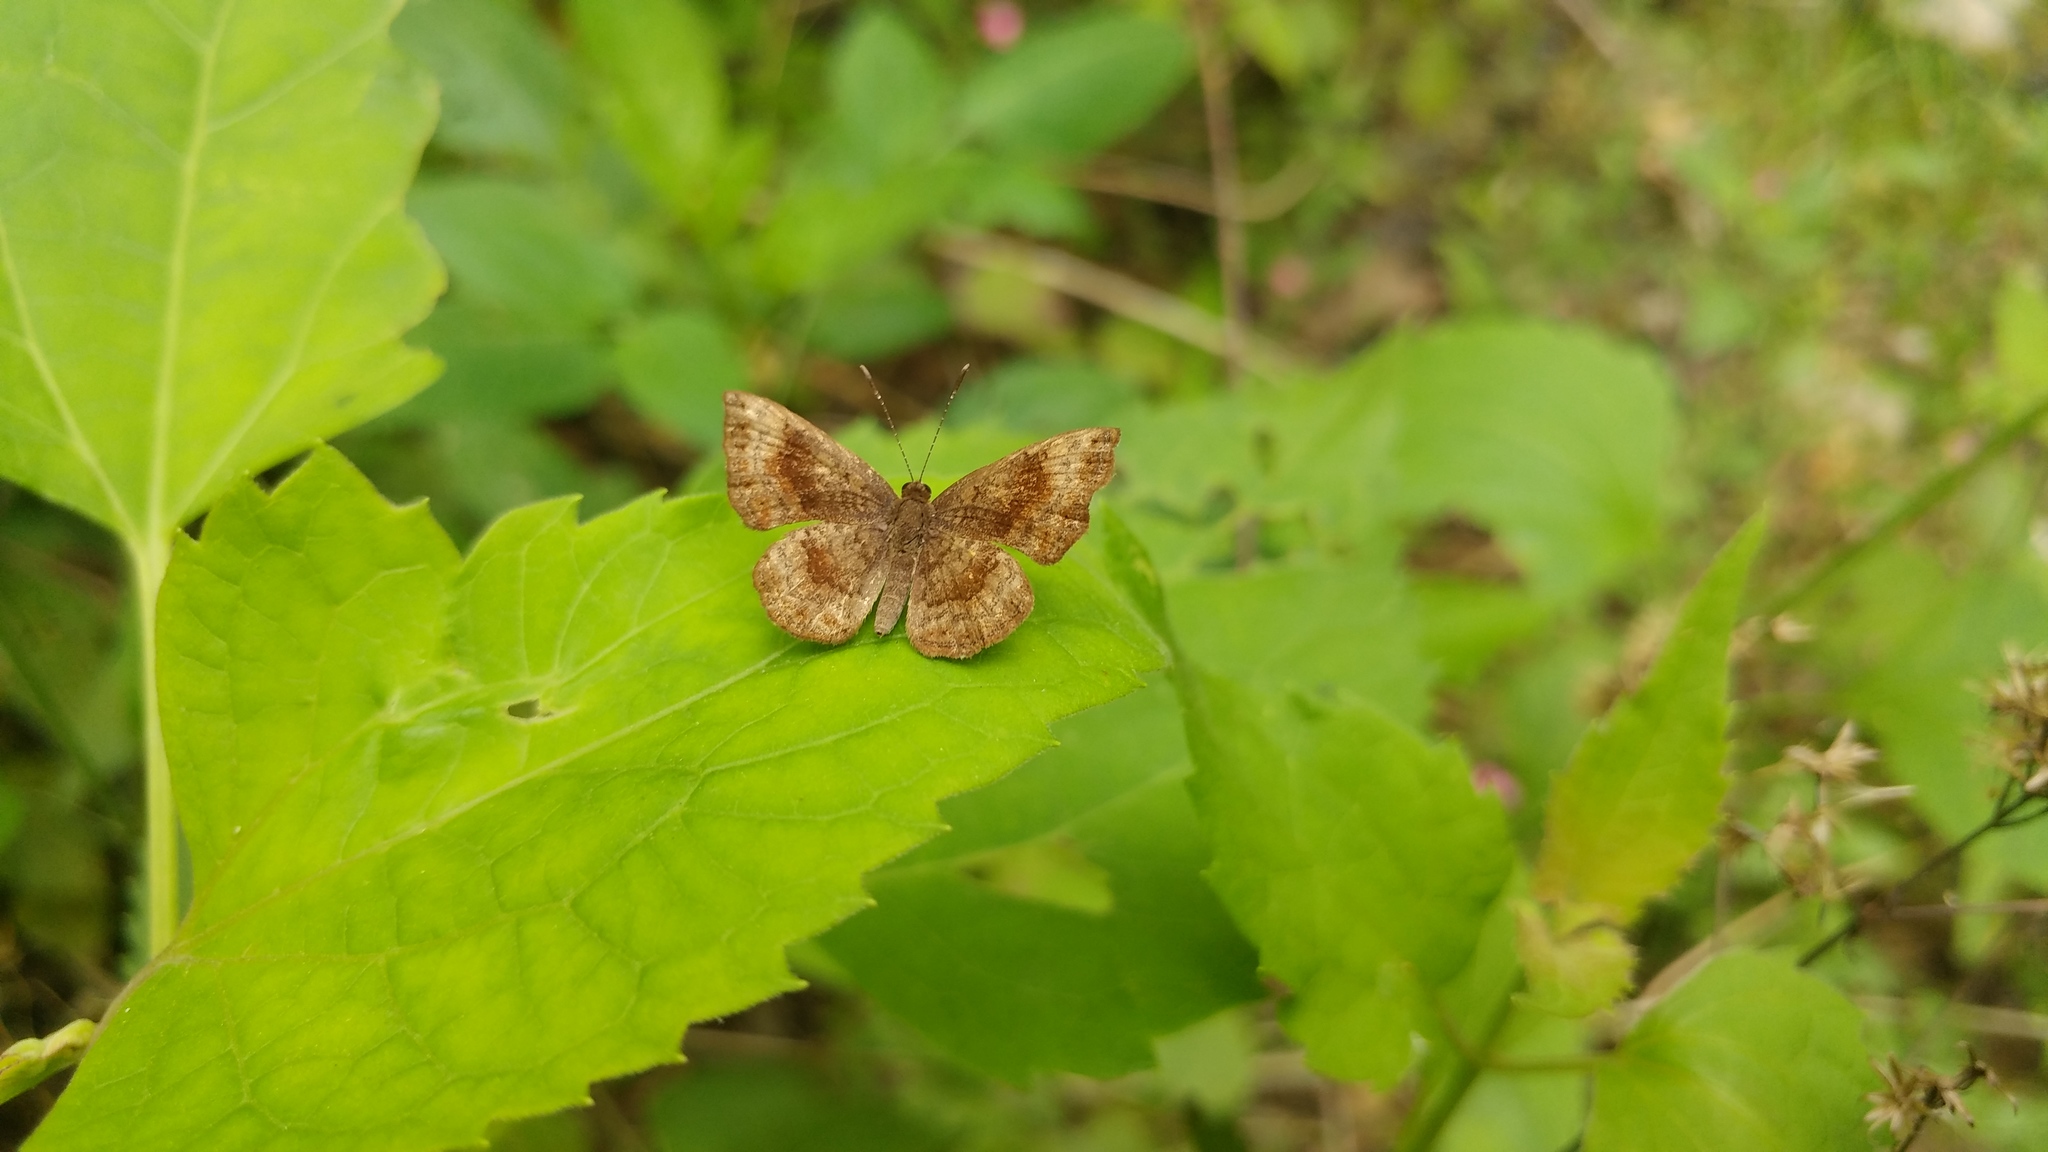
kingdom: Animalia
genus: Calephelis
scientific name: Calephelis nemesis
